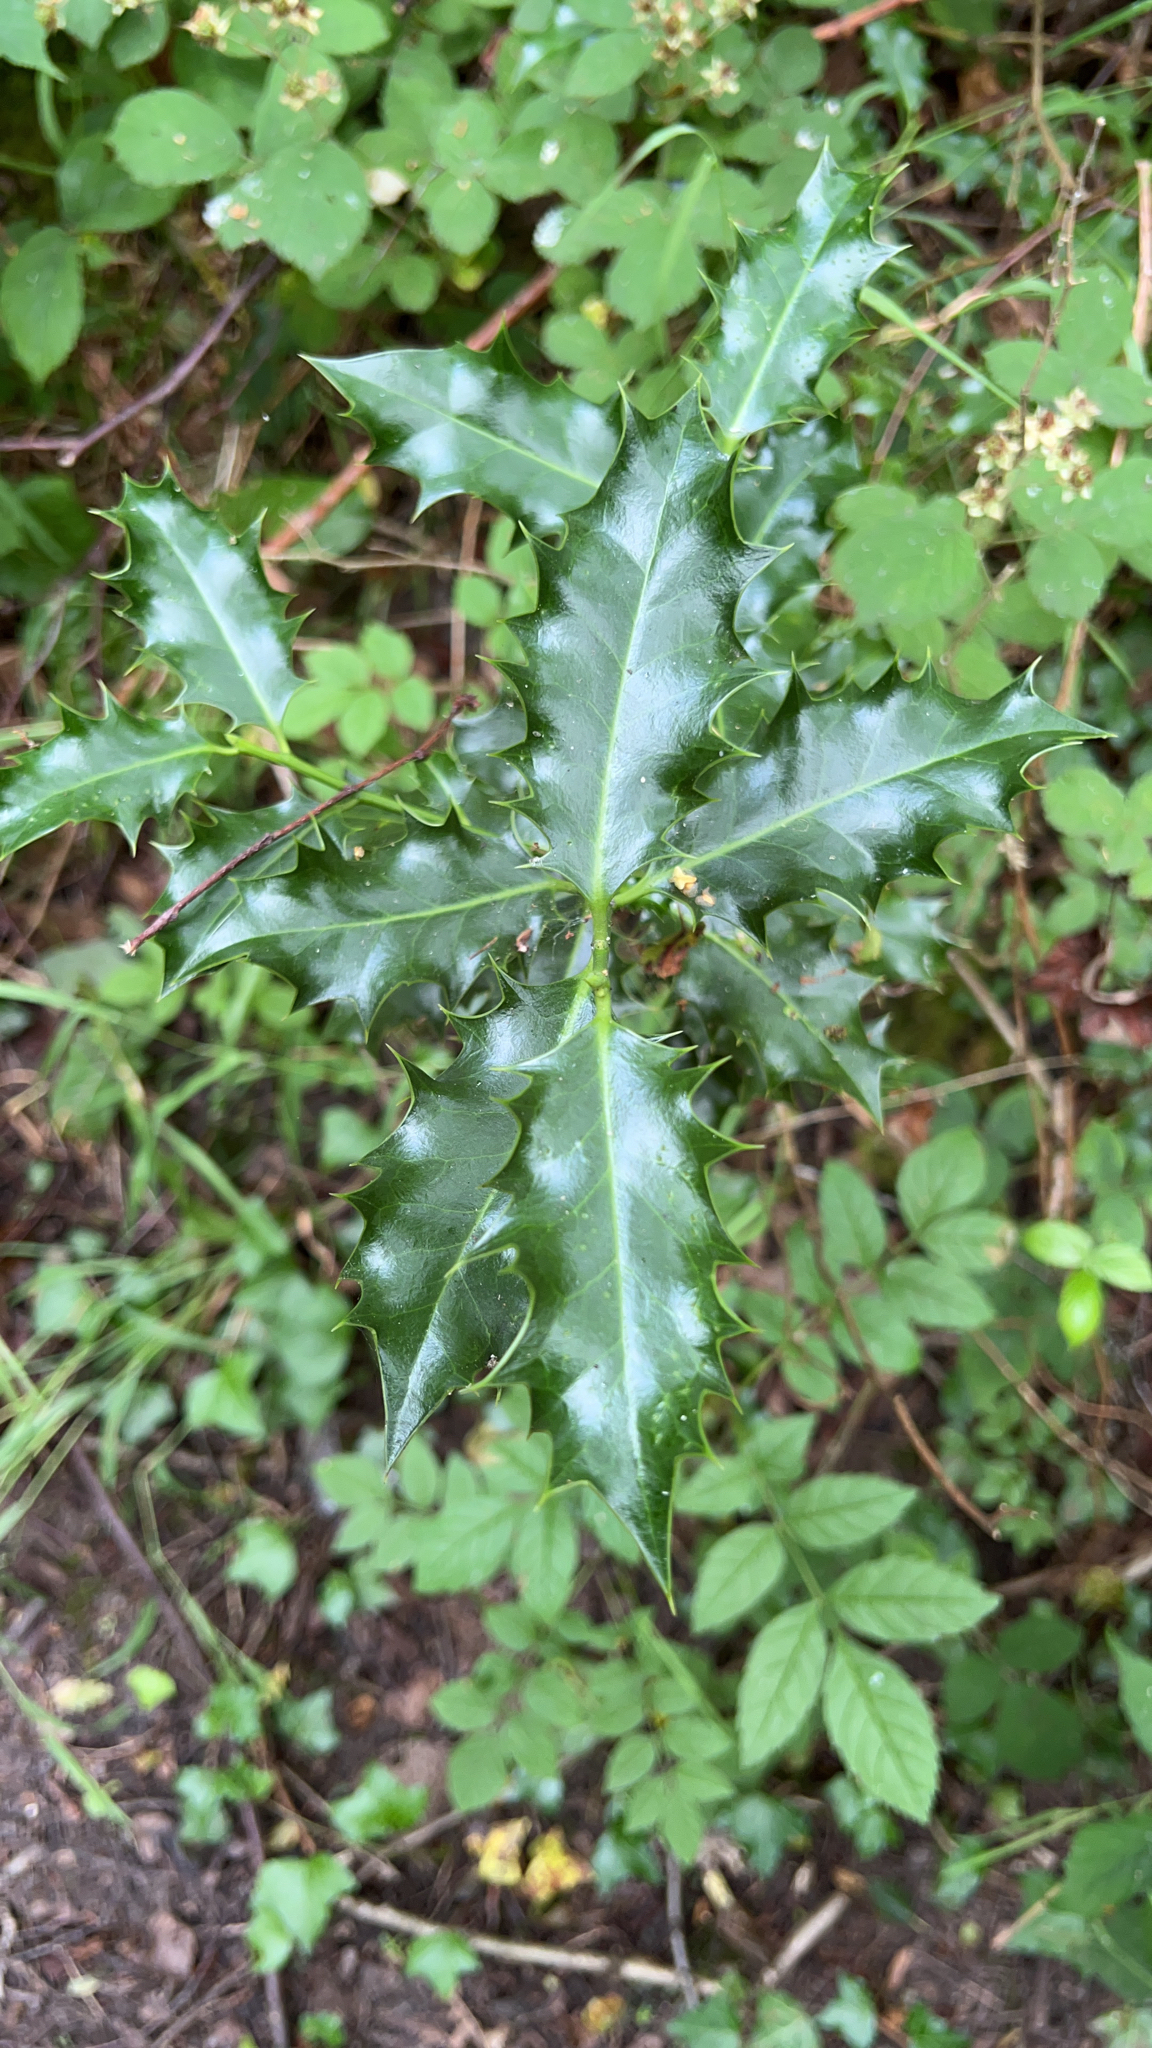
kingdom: Plantae
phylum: Tracheophyta
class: Magnoliopsida
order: Aquifoliales
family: Aquifoliaceae
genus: Ilex
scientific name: Ilex aquifolium
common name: English holly
